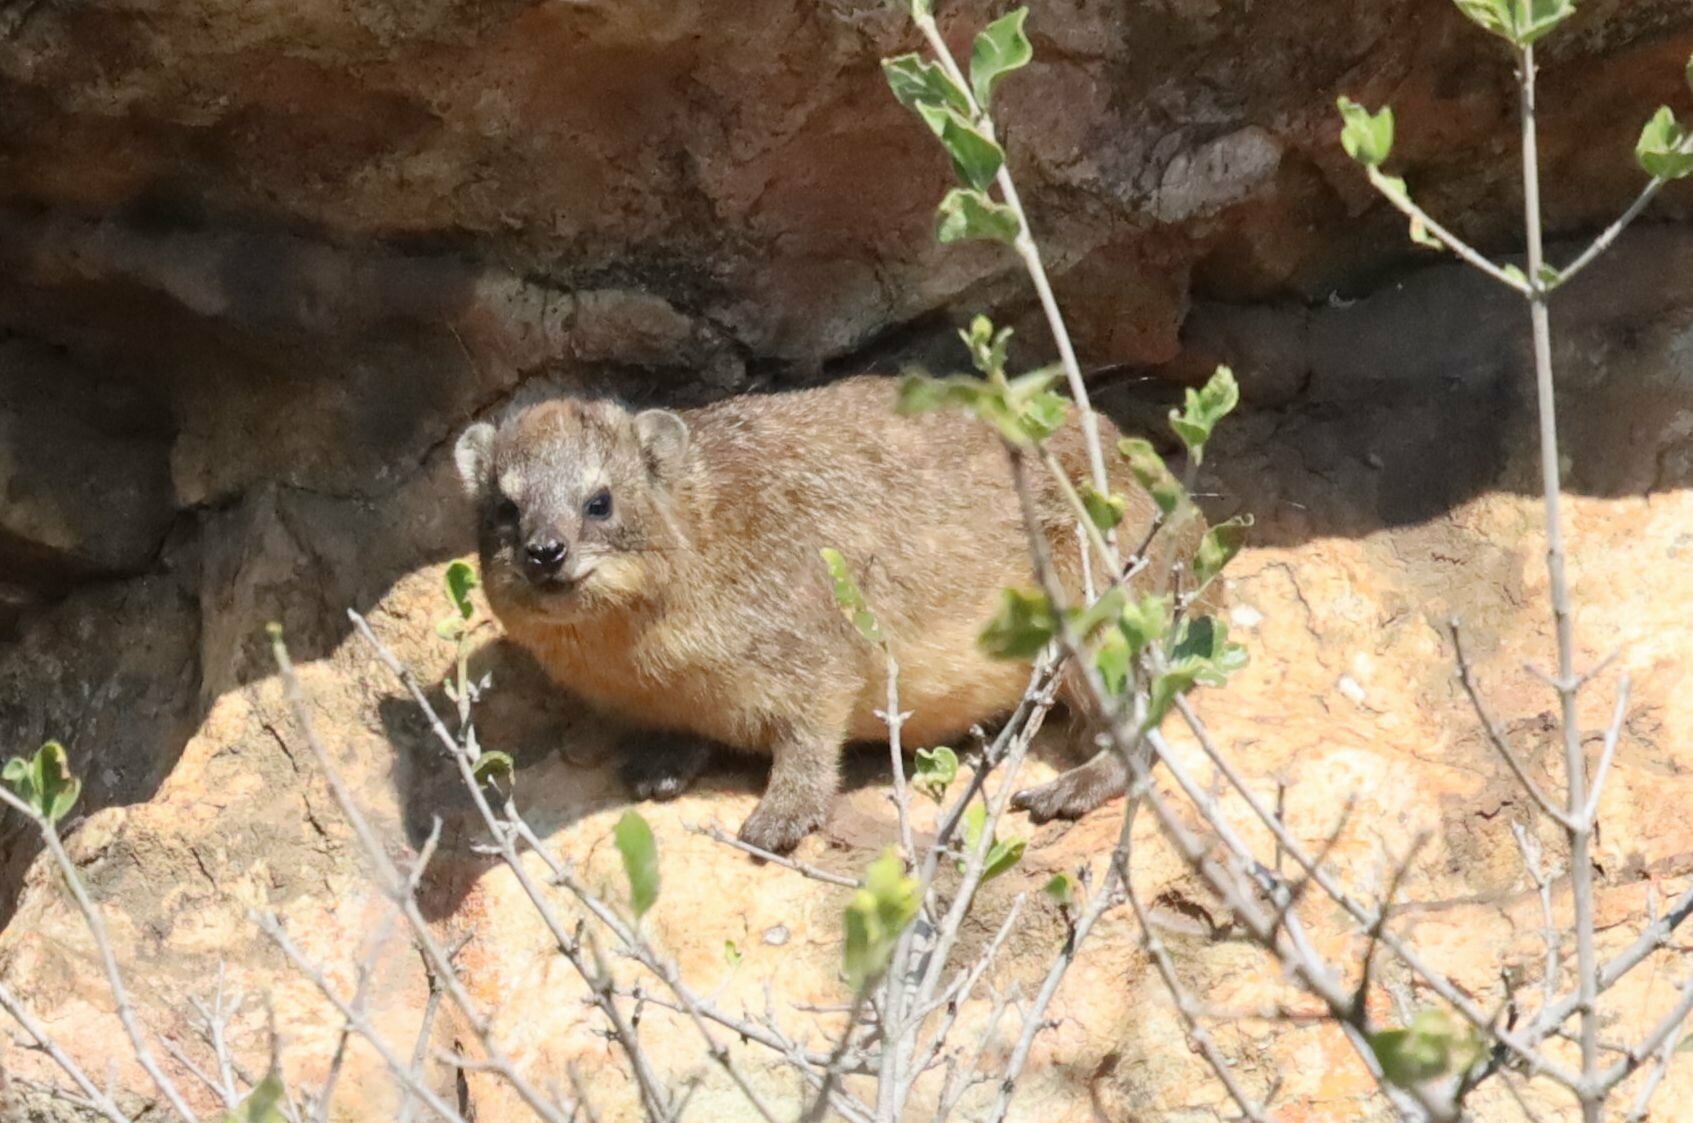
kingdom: Animalia
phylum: Chordata
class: Mammalia
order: Hyracoidea
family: Procaviidae
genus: Procavia
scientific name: Procavia capensis
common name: Rock hyrax
